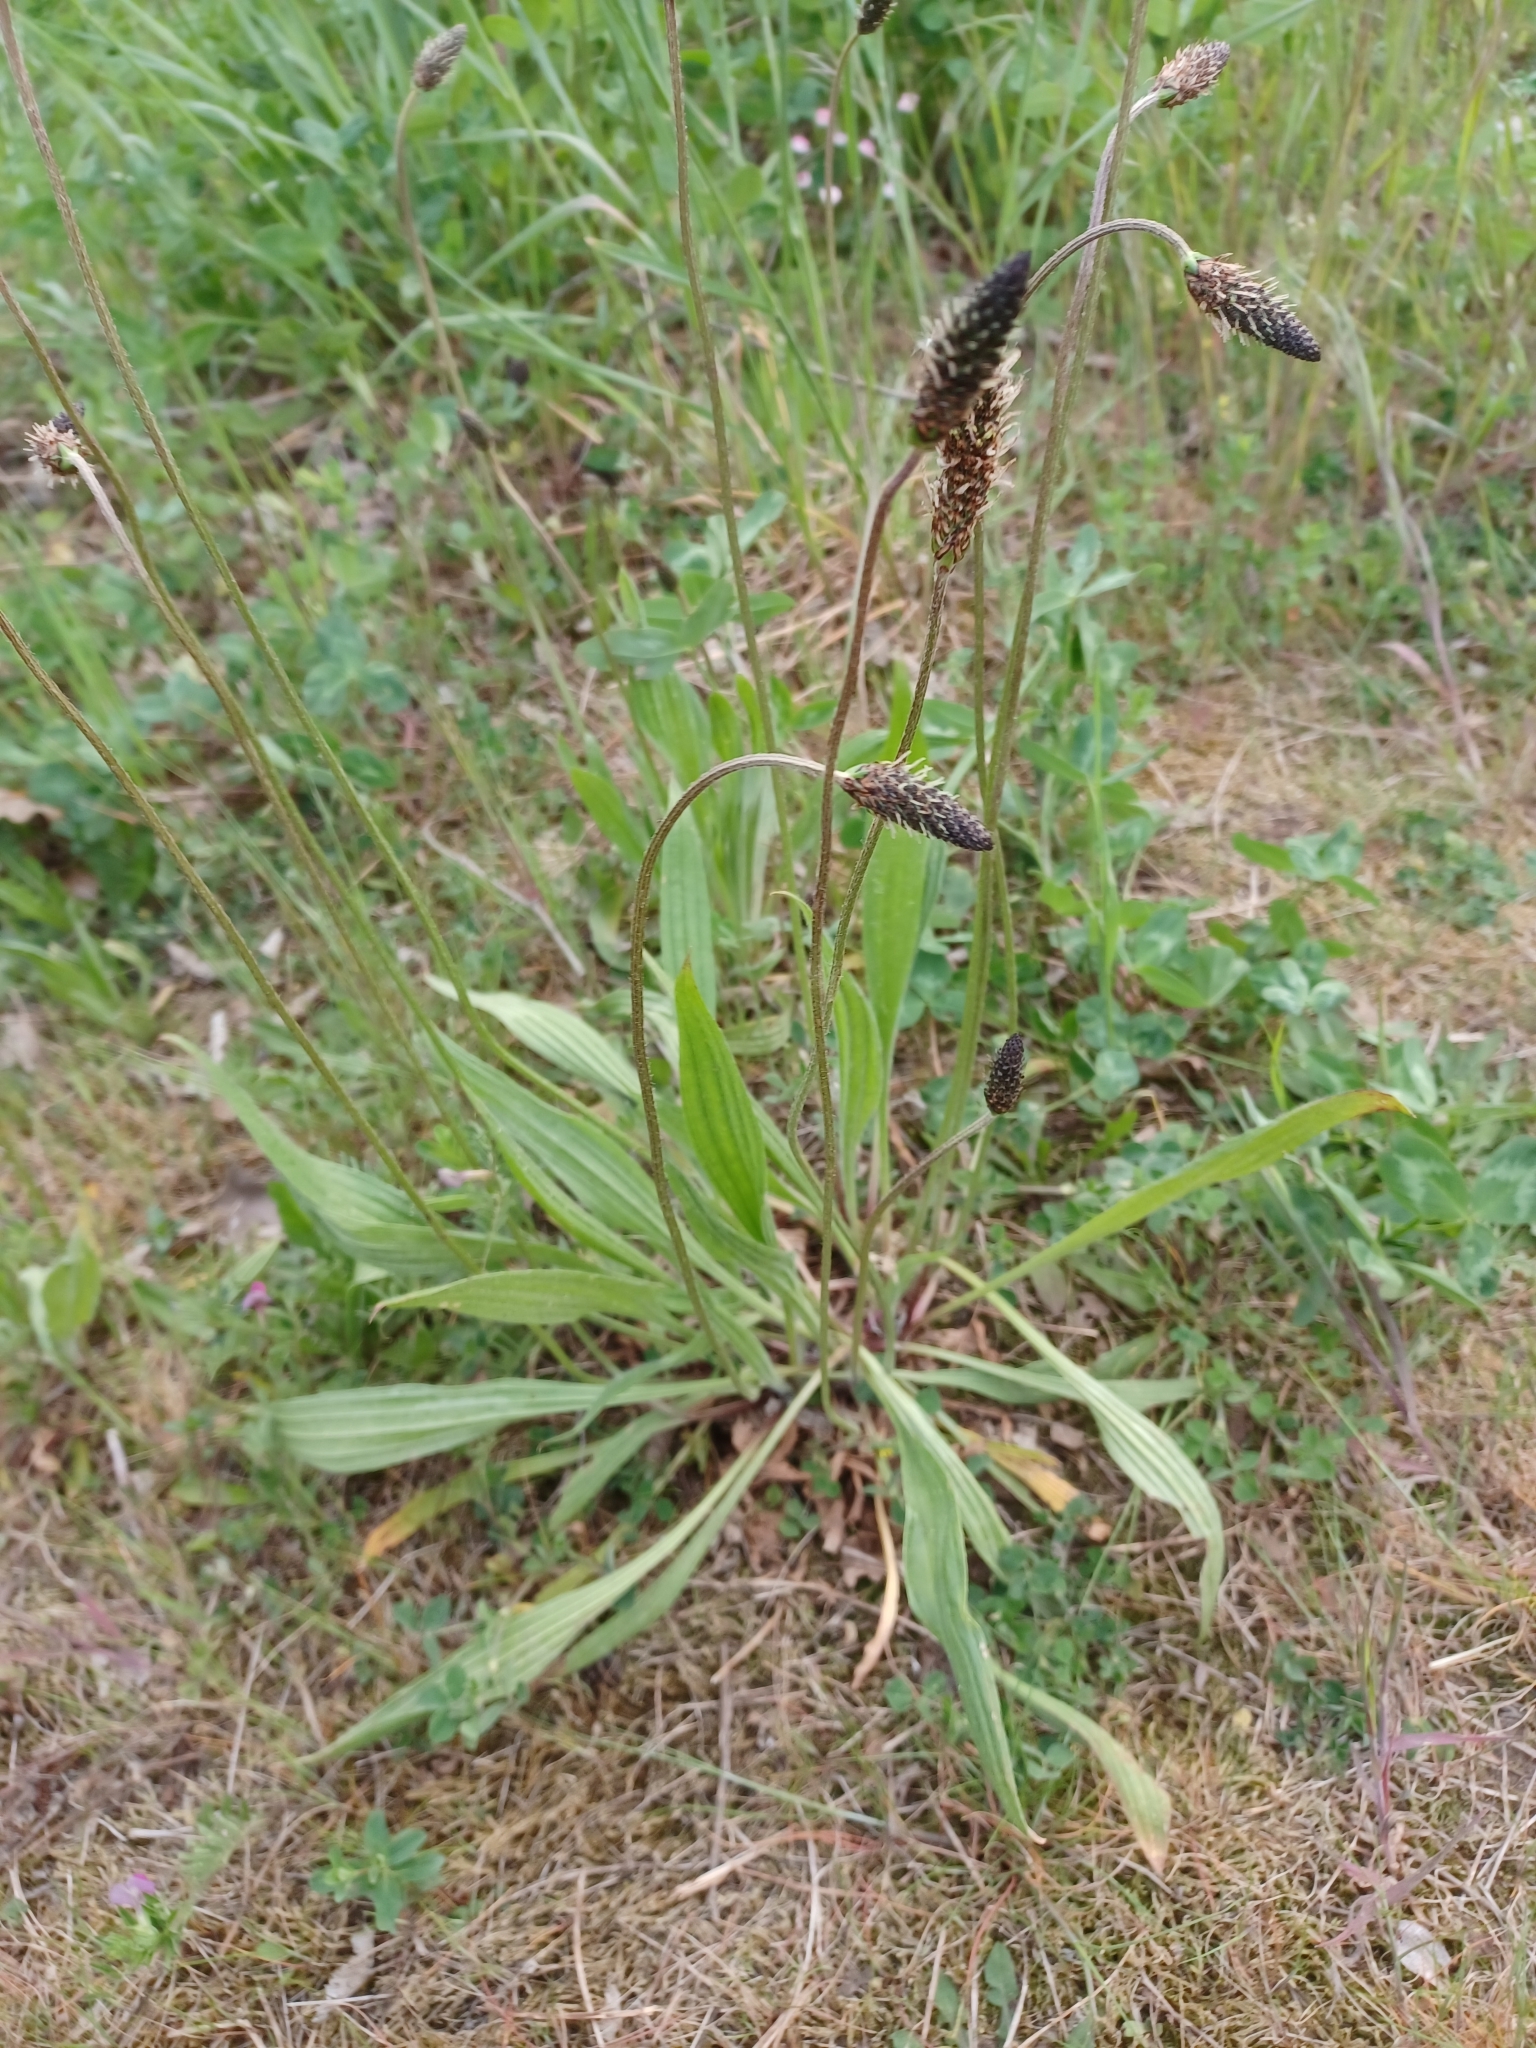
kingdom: Plantae
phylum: Tracheophyta
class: Magnoliopsida
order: Lamiales
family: Plantaginaceae
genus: Plantago
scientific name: Plantago lanceolata
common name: Ribwort plantain
